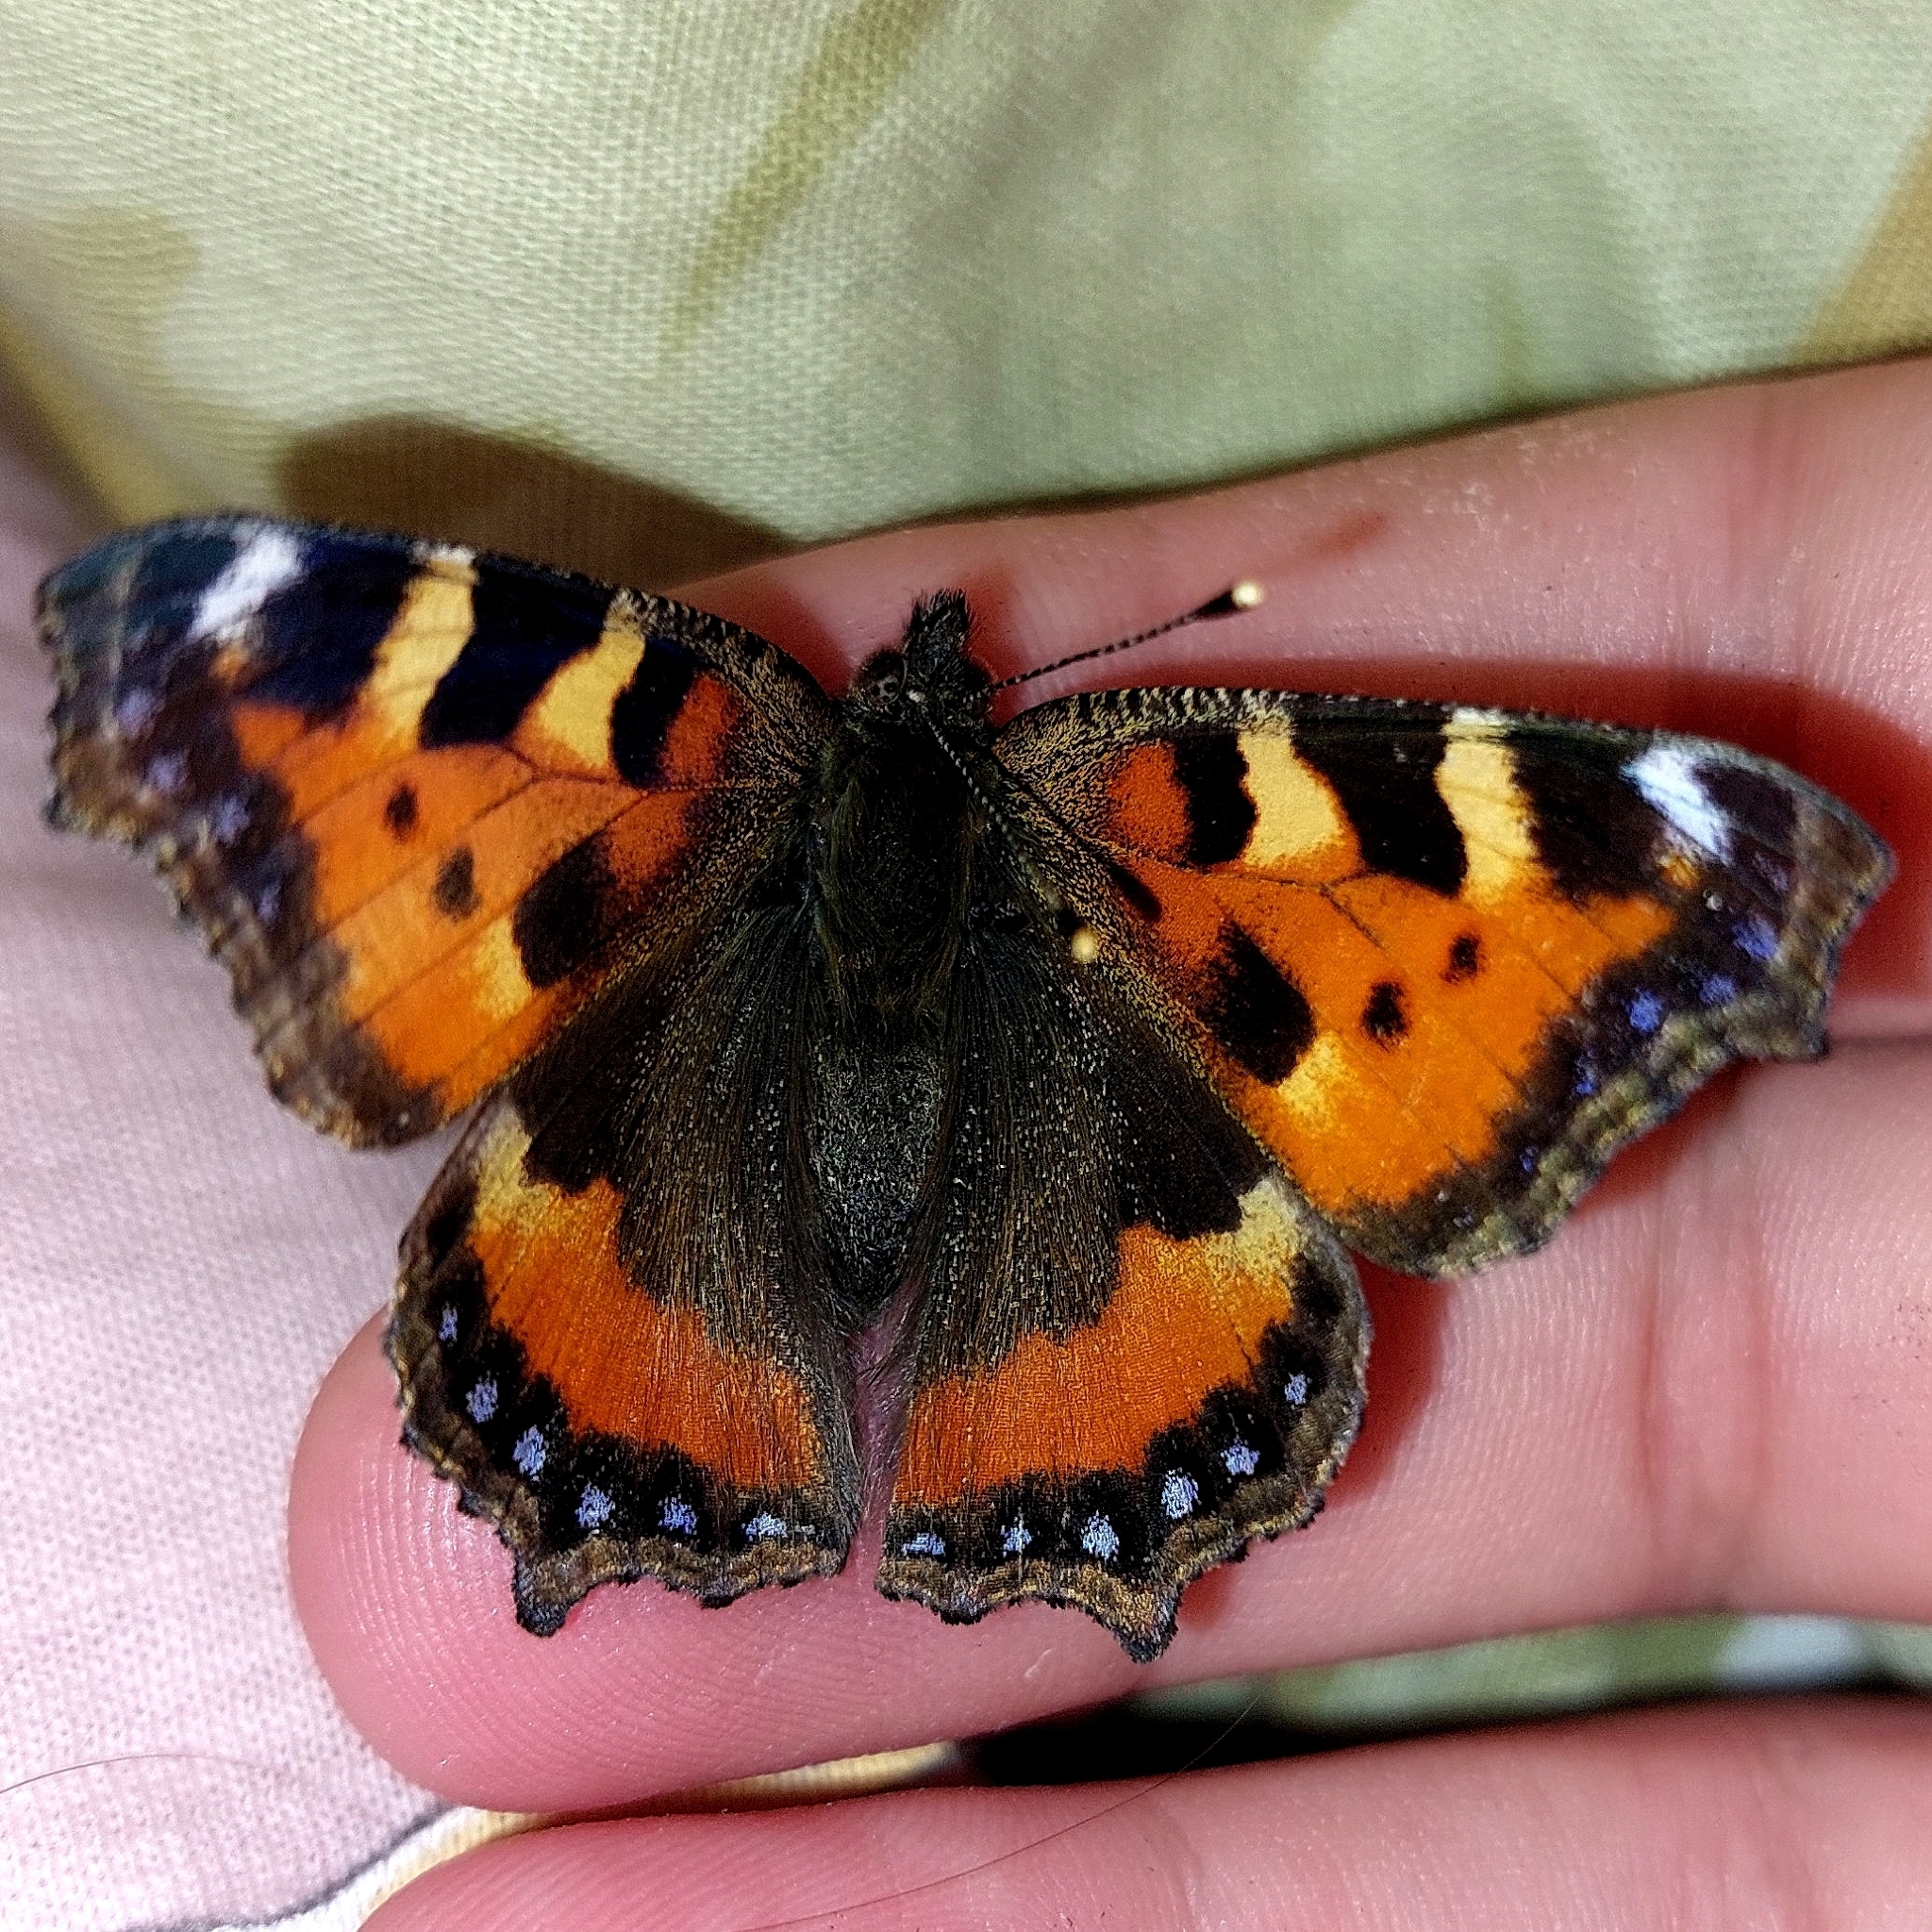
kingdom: Animalia
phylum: Arthropoda
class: Insecta
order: Lepidoptera
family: Nymphalidae
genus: Aglais
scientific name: Aglais urticae
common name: Small tortoiseshell
